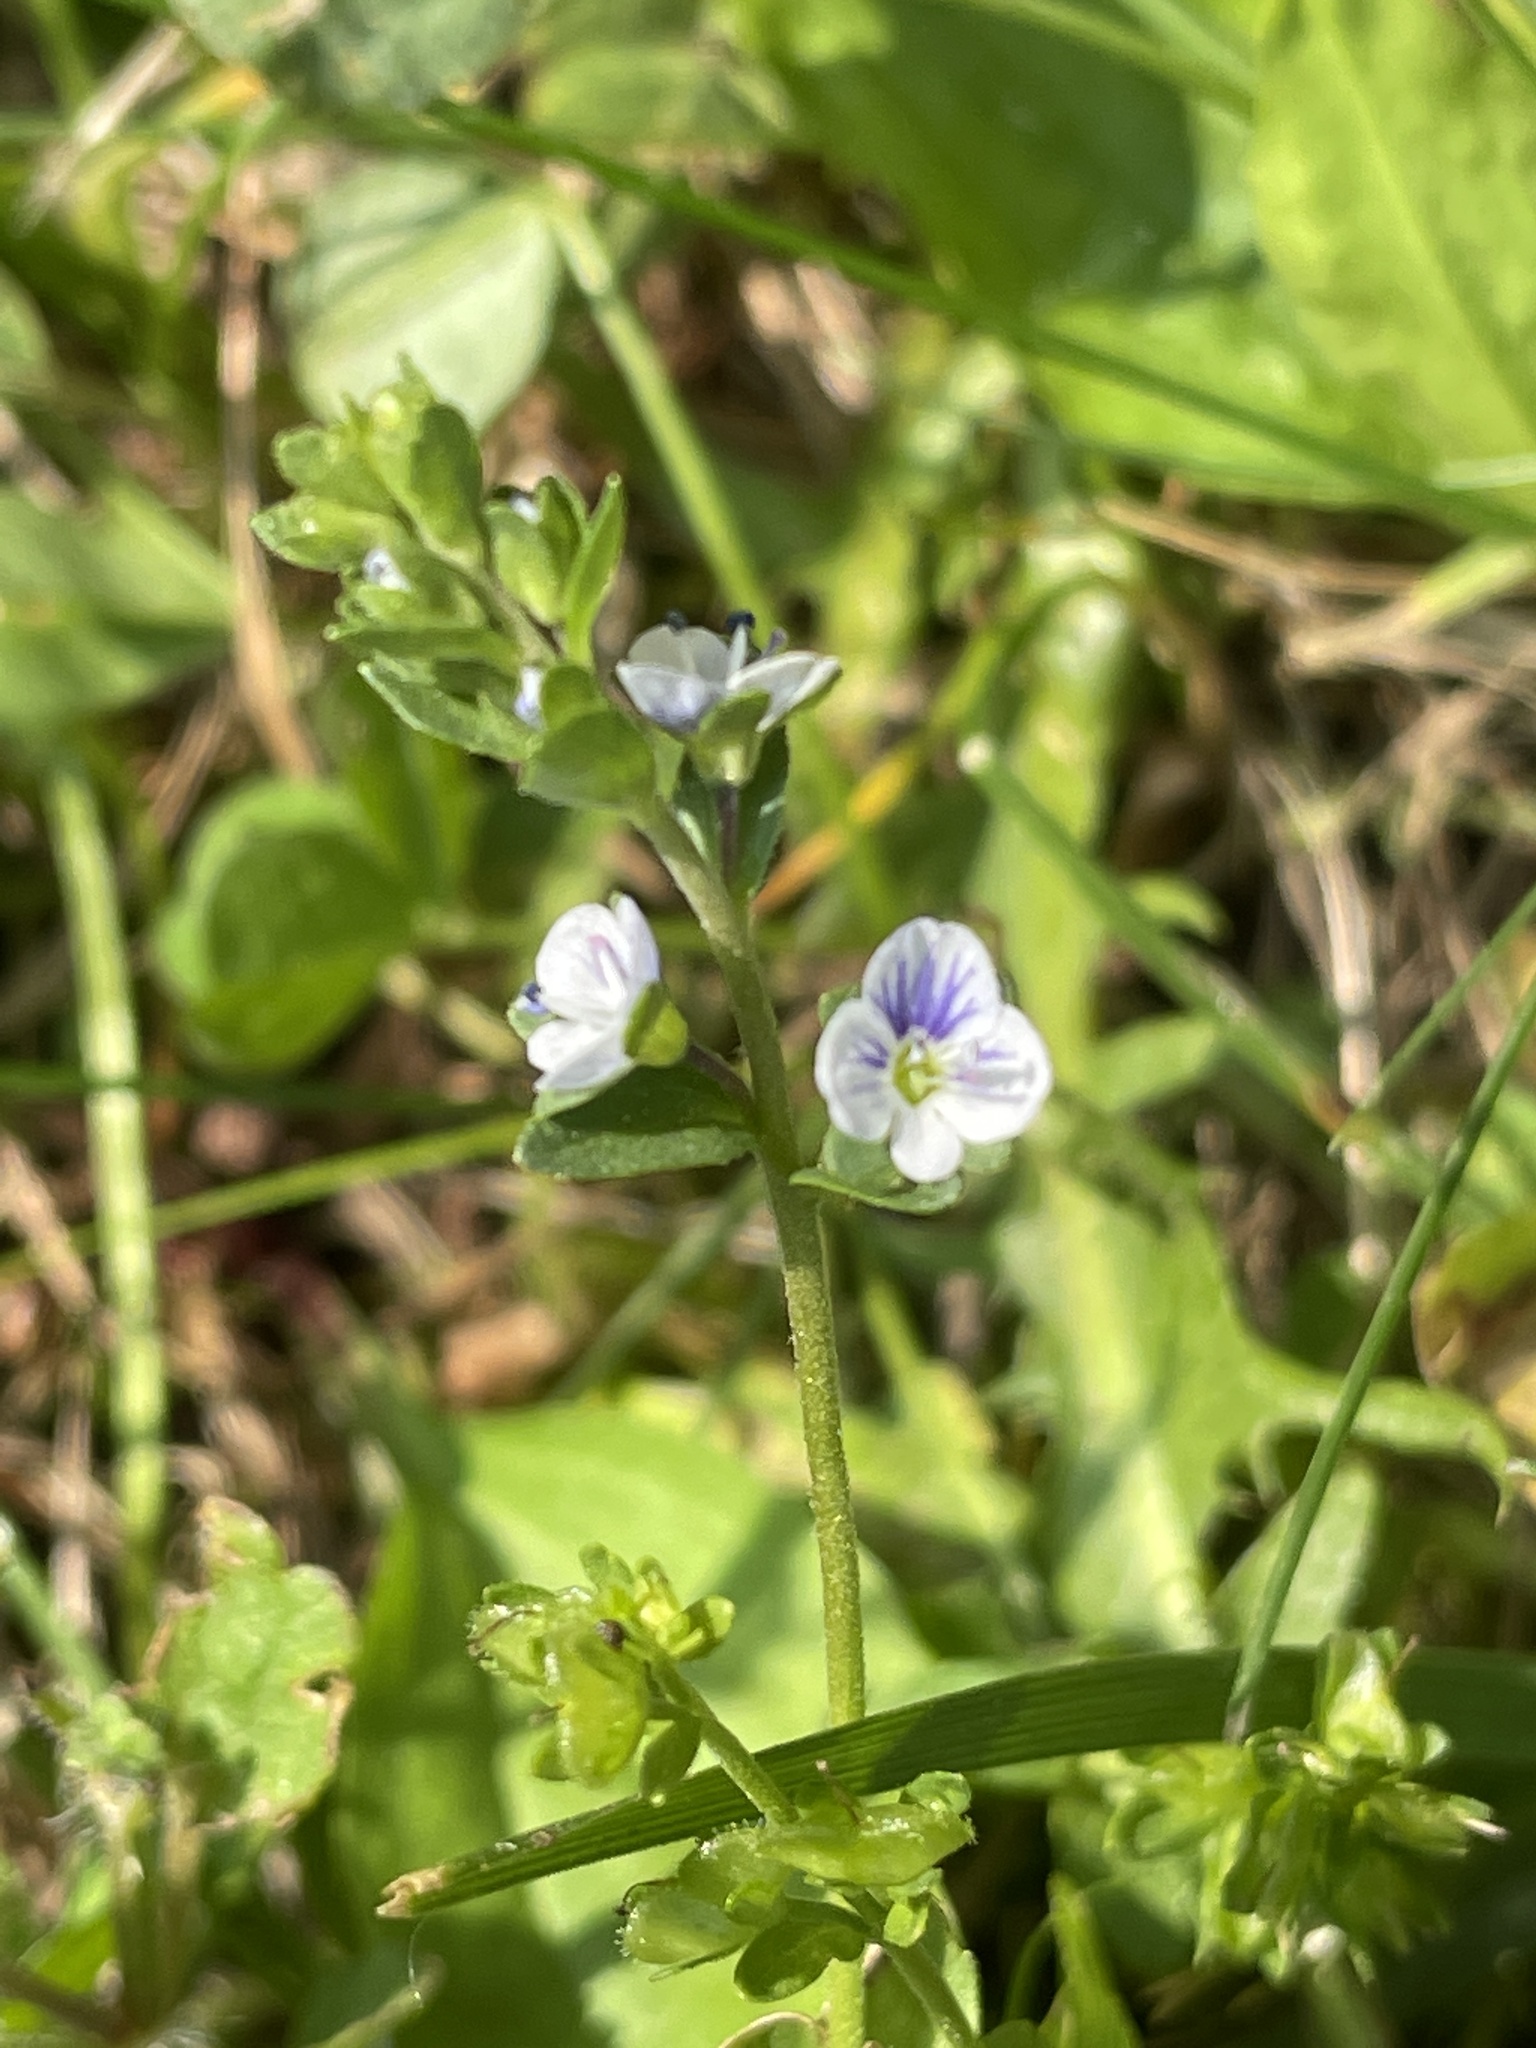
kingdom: Plantae
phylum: Tracheophyta
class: Magnoliopsida
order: Lamiales
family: Plantaginaceae
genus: Veronica
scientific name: Veronica serpyllifolia
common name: Thyme-leaved speedwell
